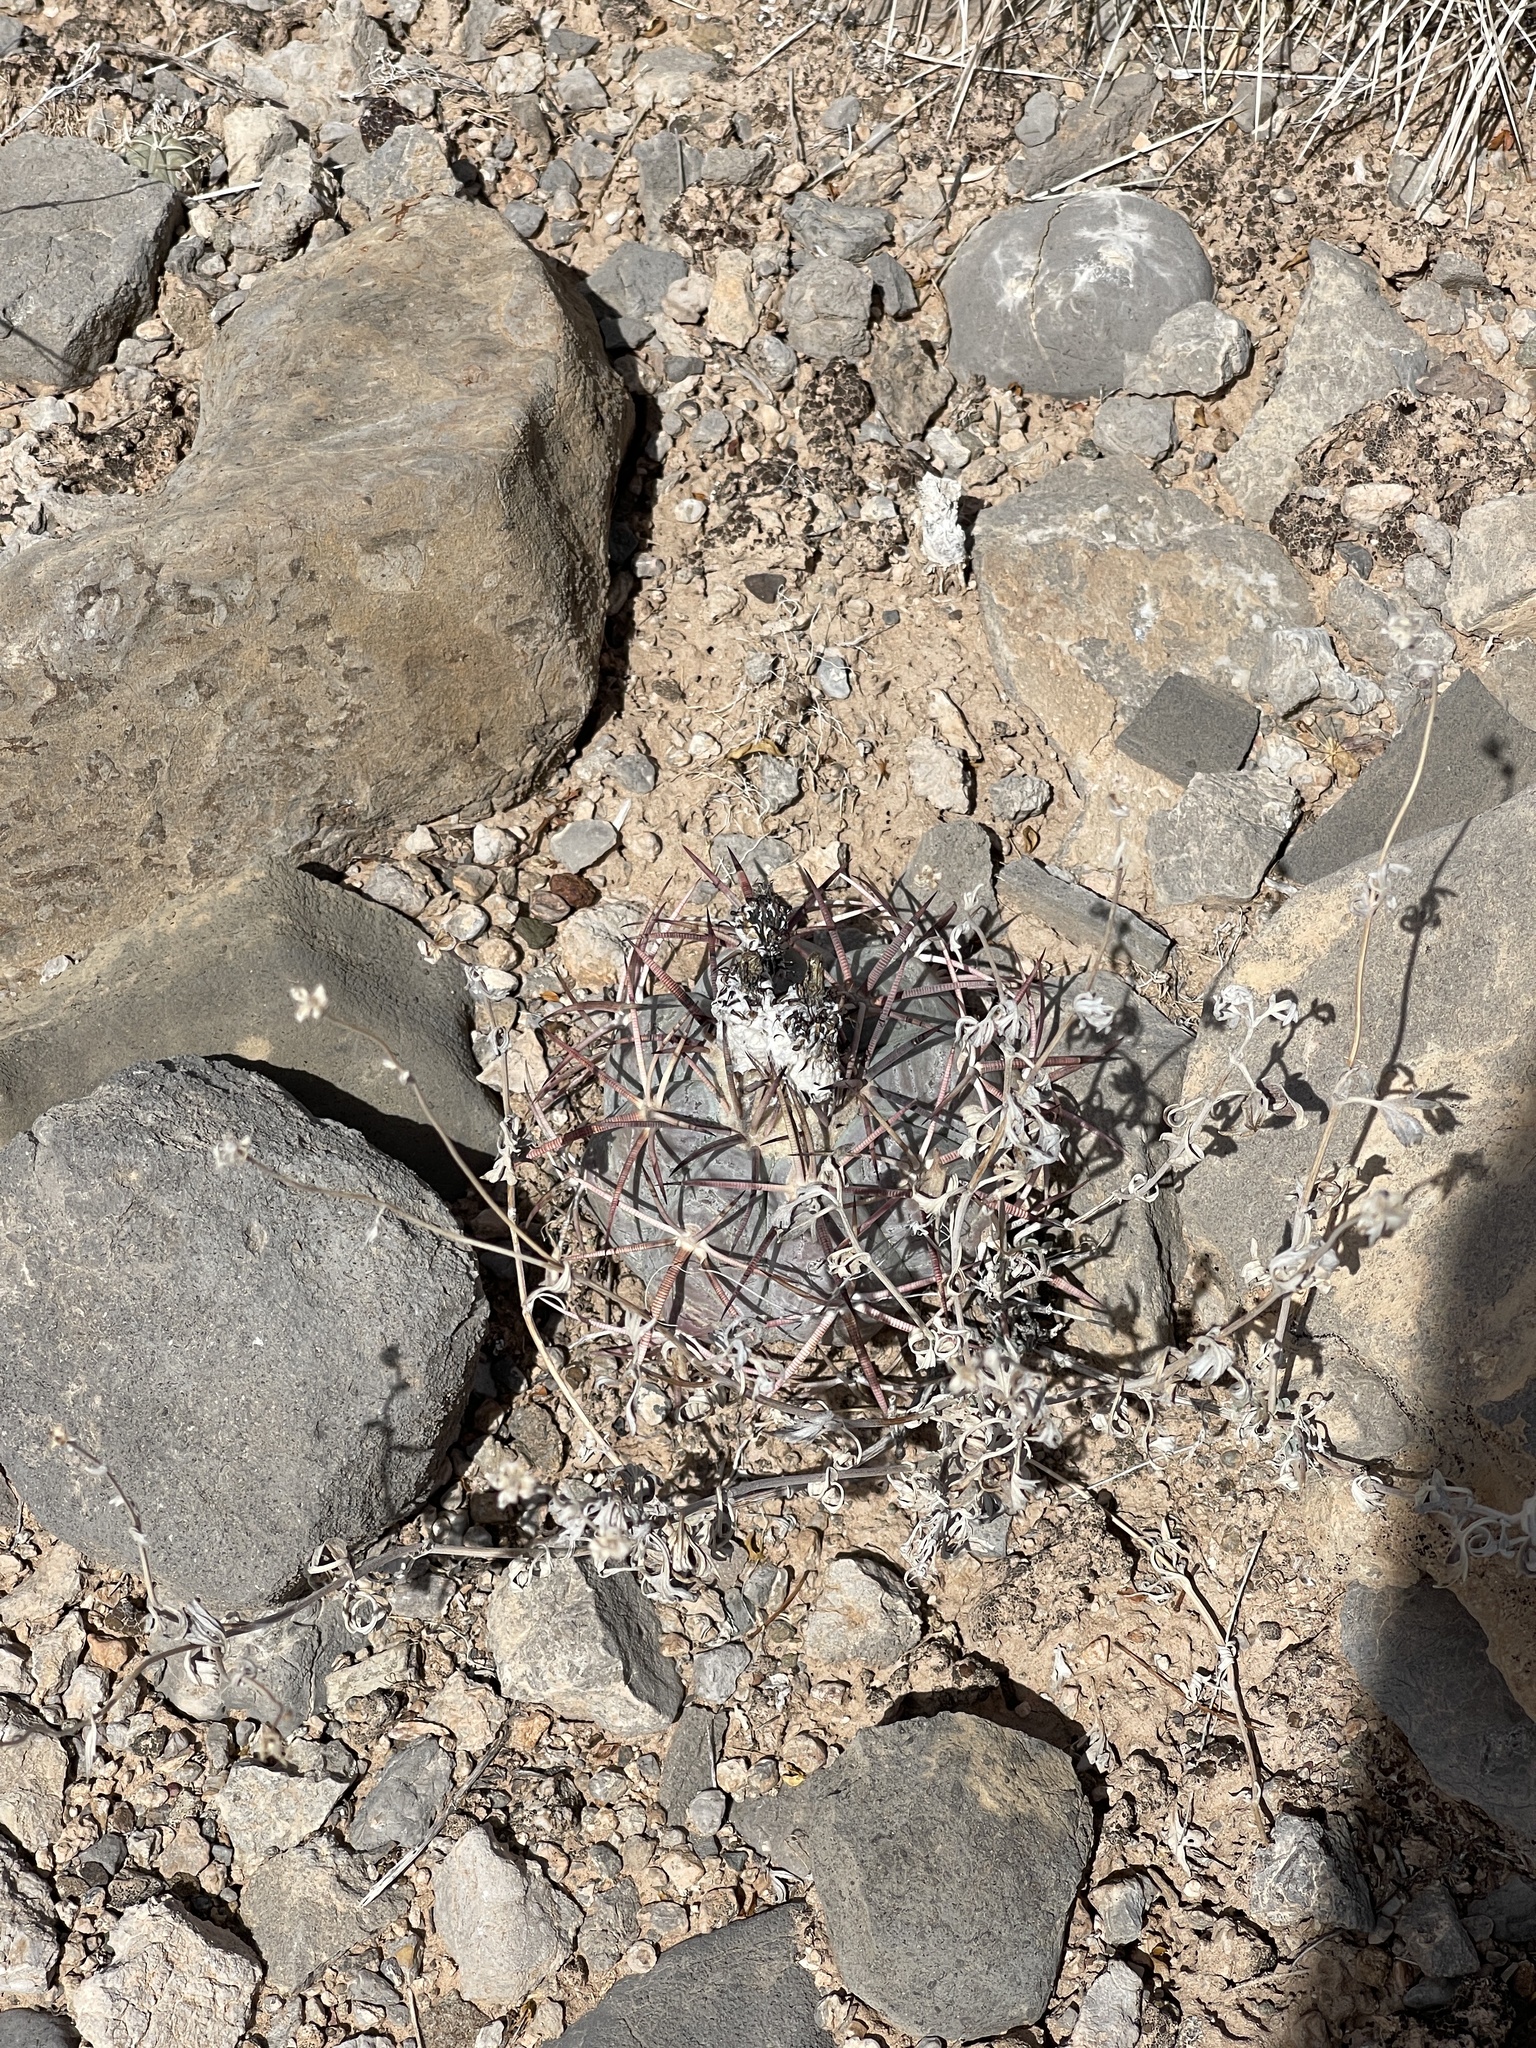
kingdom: Plantae
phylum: Tracheophyta
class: Magnoliopsida
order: Caryophyllales
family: Cactaceae
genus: Echinocactus
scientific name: Echinocactus horizonthalonius
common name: Devilshead
